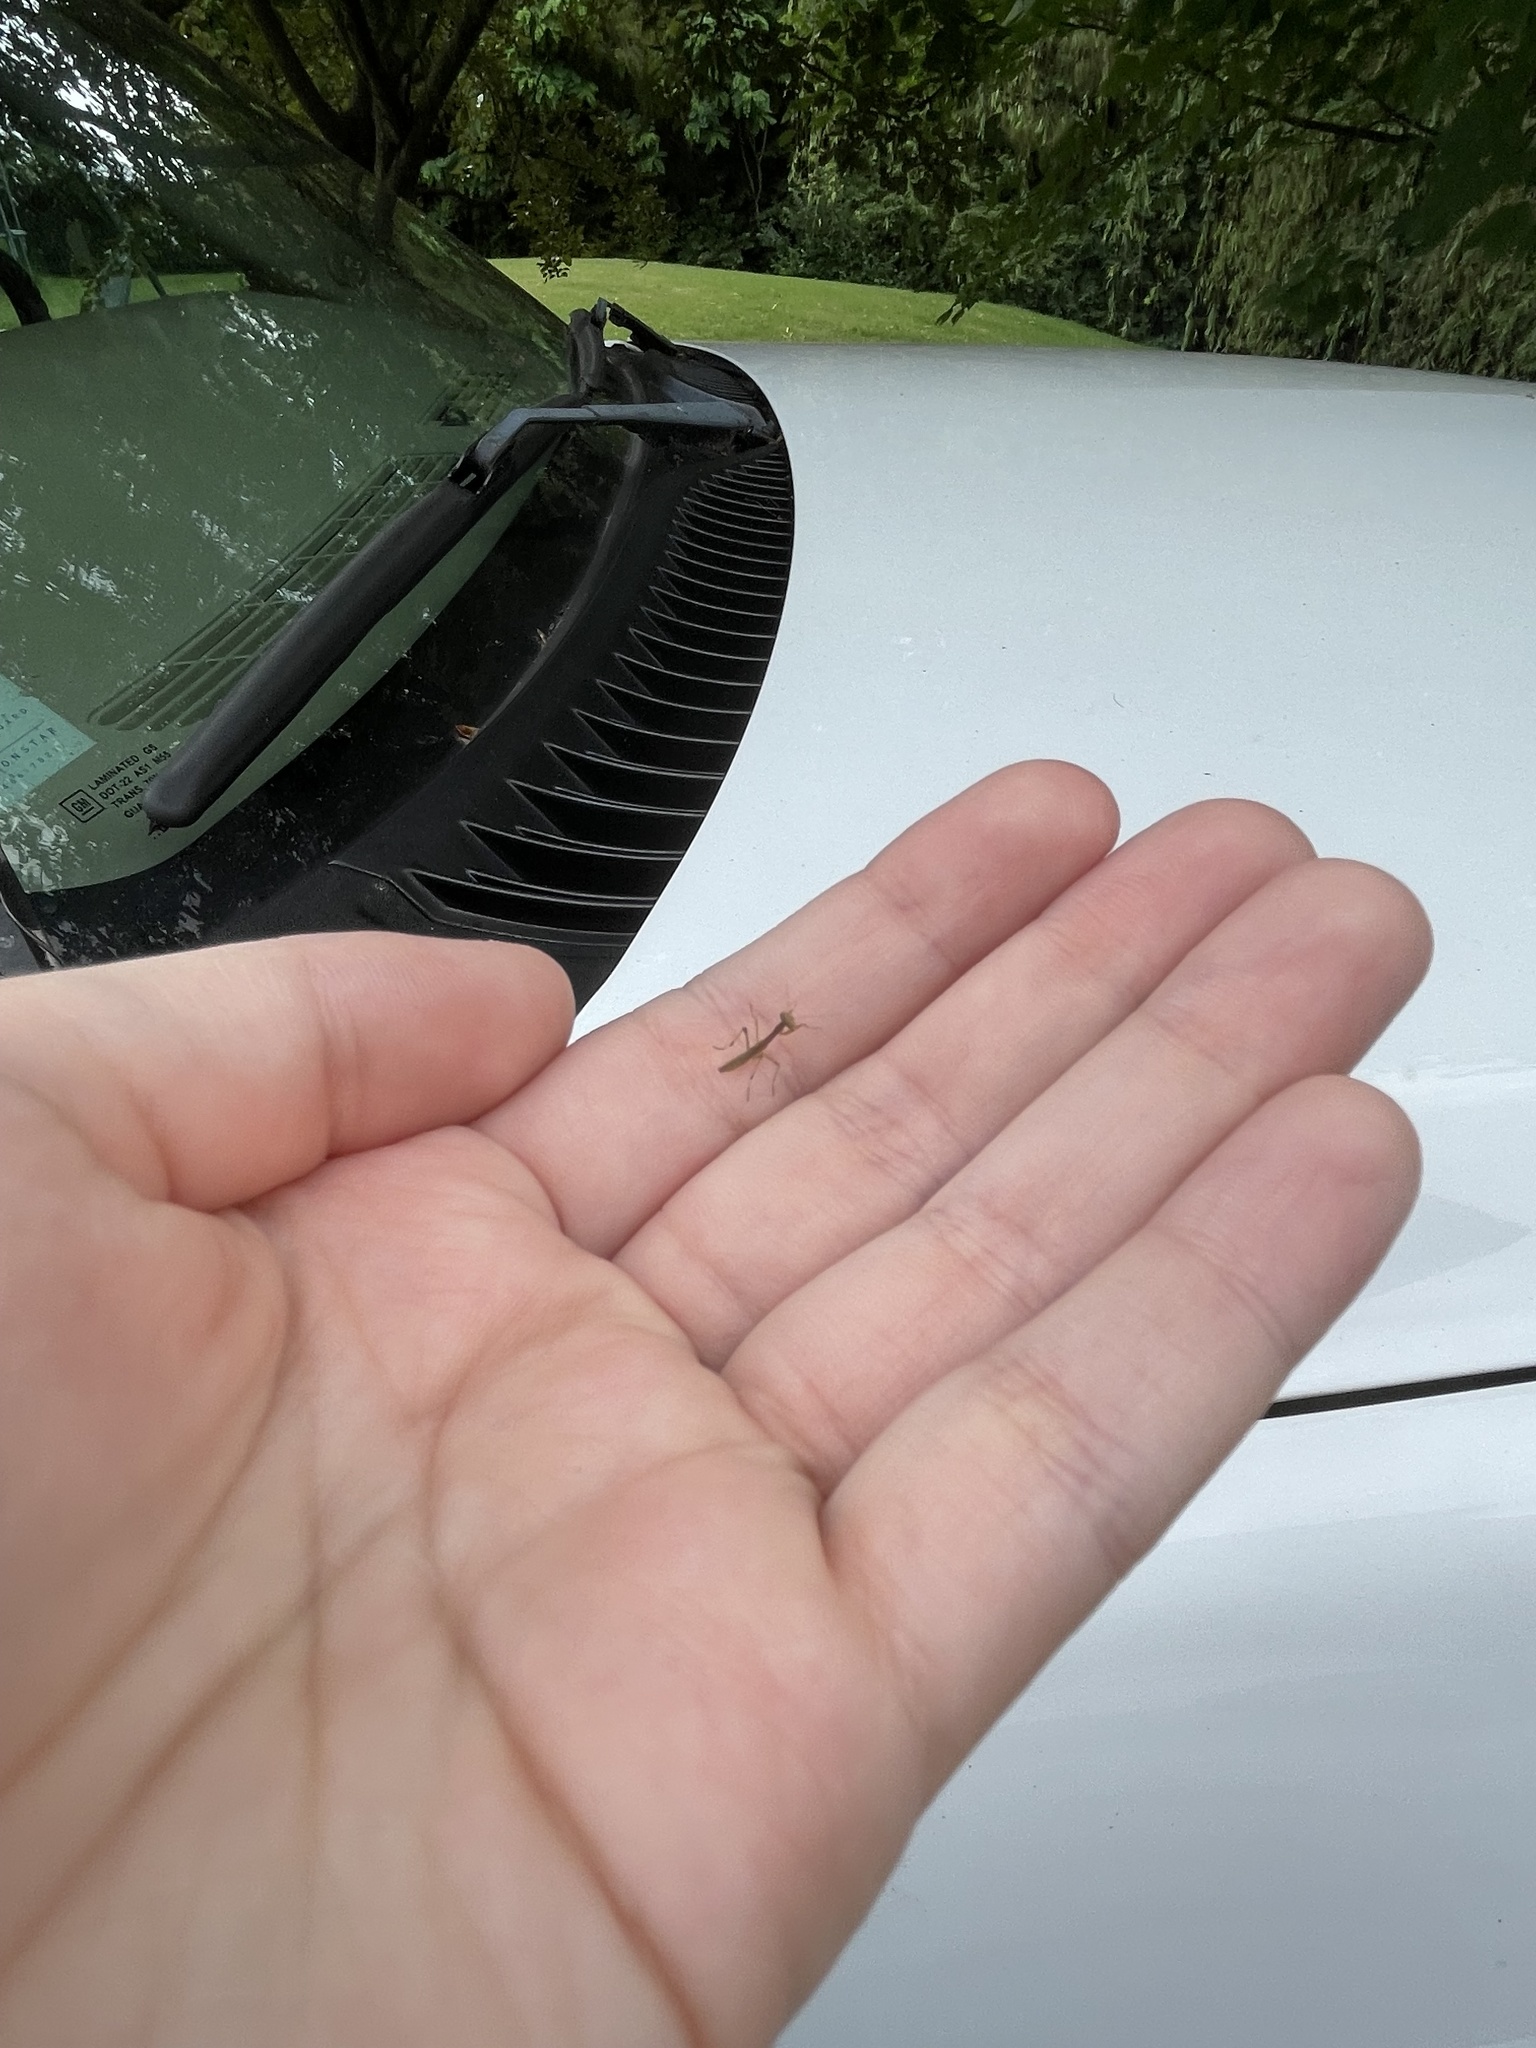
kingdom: Animalia
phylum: Arthropoda
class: Insecta
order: Mantodea
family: Mantidae
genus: Stagmomantis
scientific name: Stagmomantis carolina
